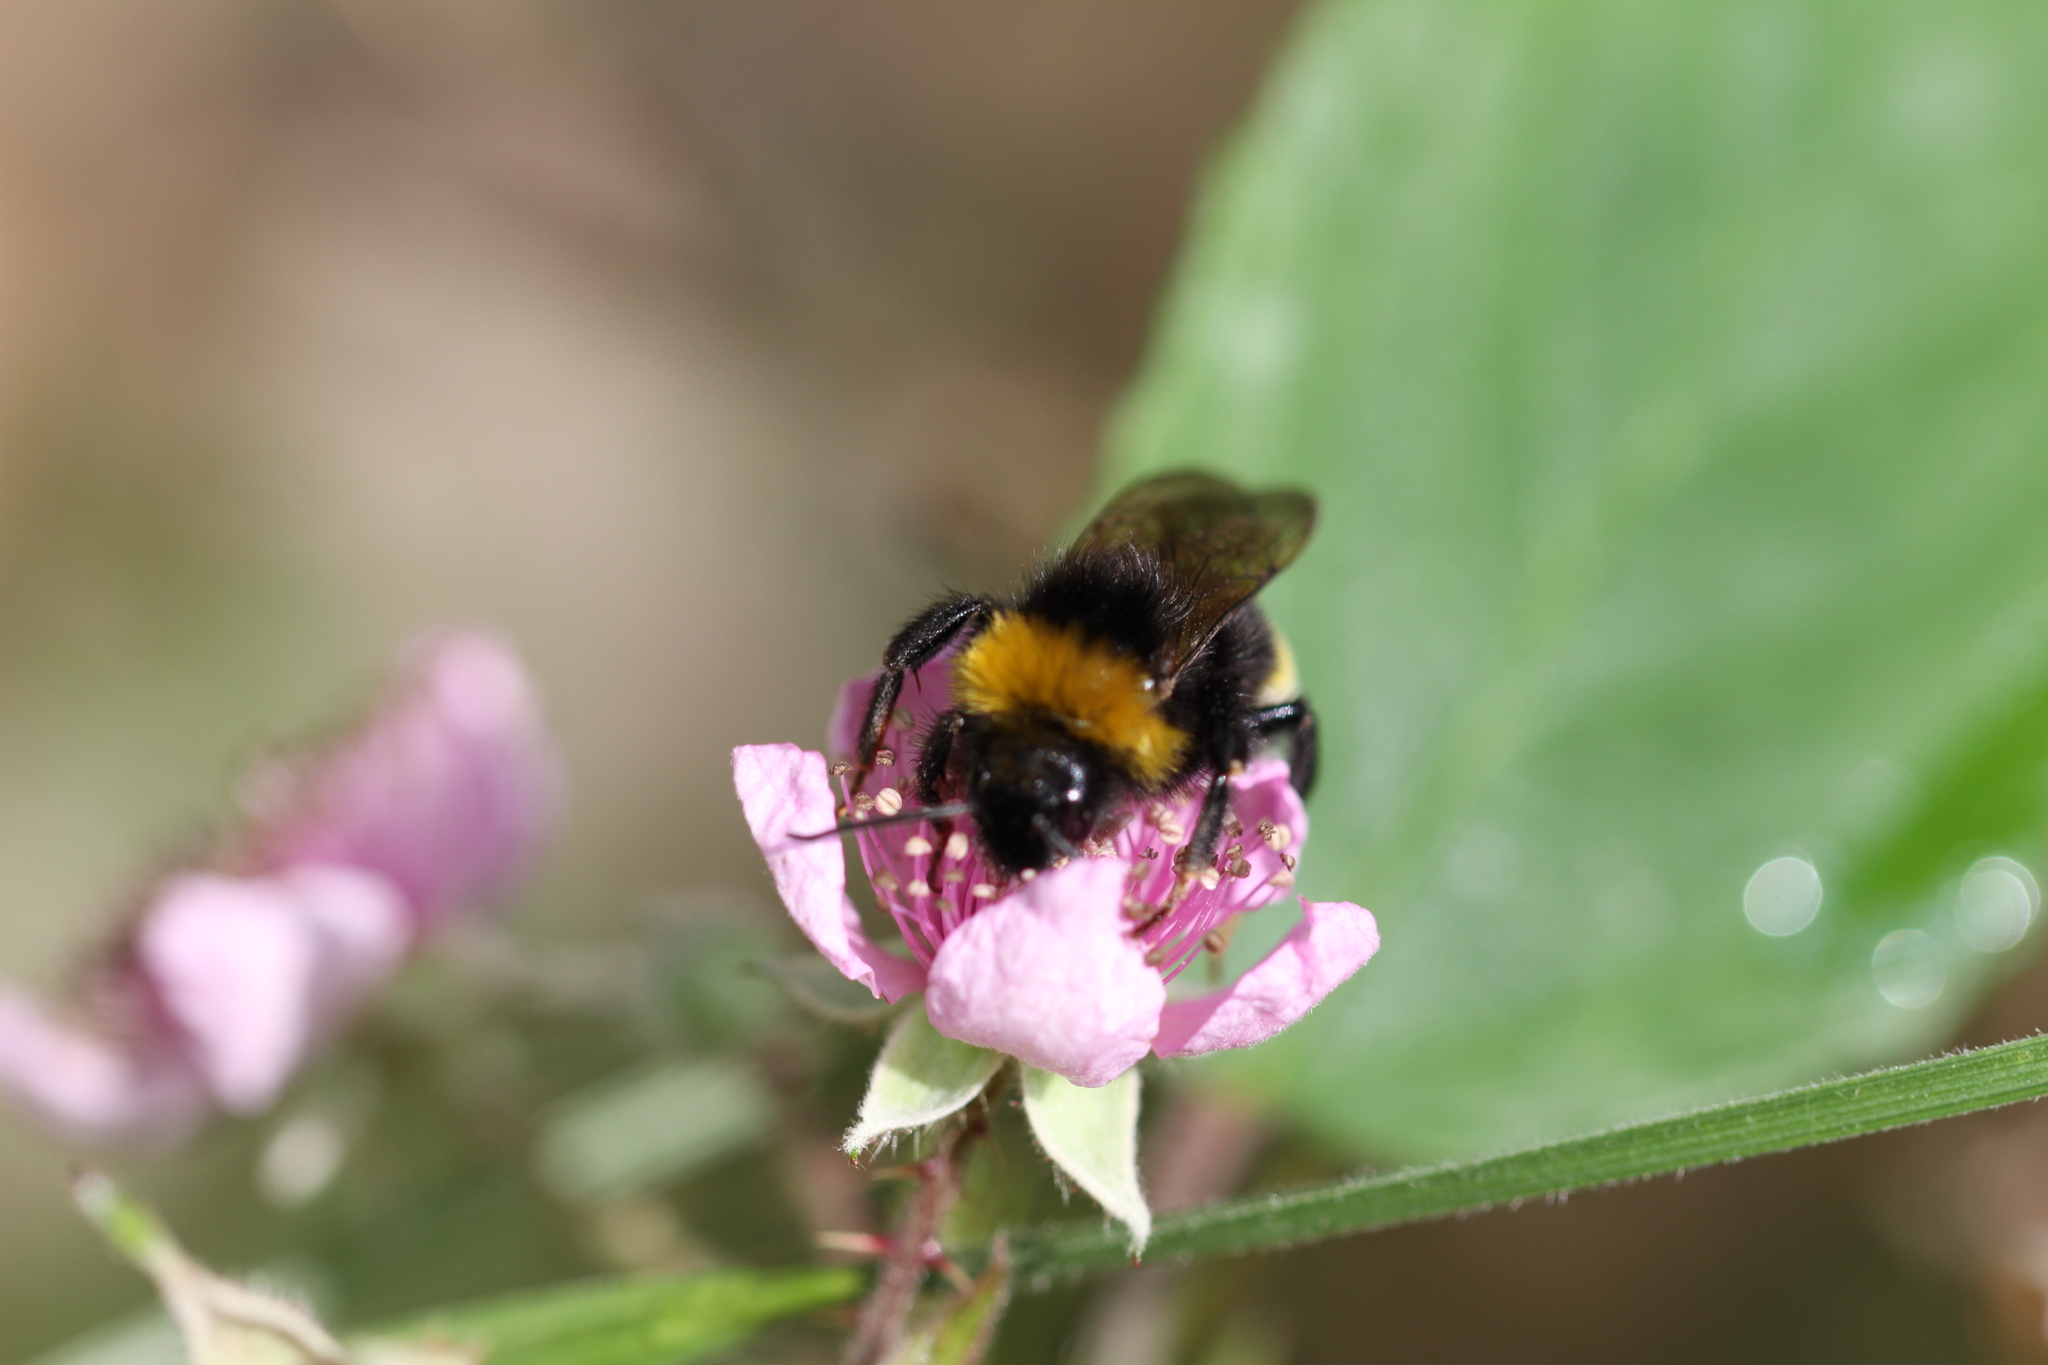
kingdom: Animalia
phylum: Arthropoda
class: Insecta
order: Hymenoptera
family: Apidae
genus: Bombus
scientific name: Bombus vestalis
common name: Vestal cuckoo bee
